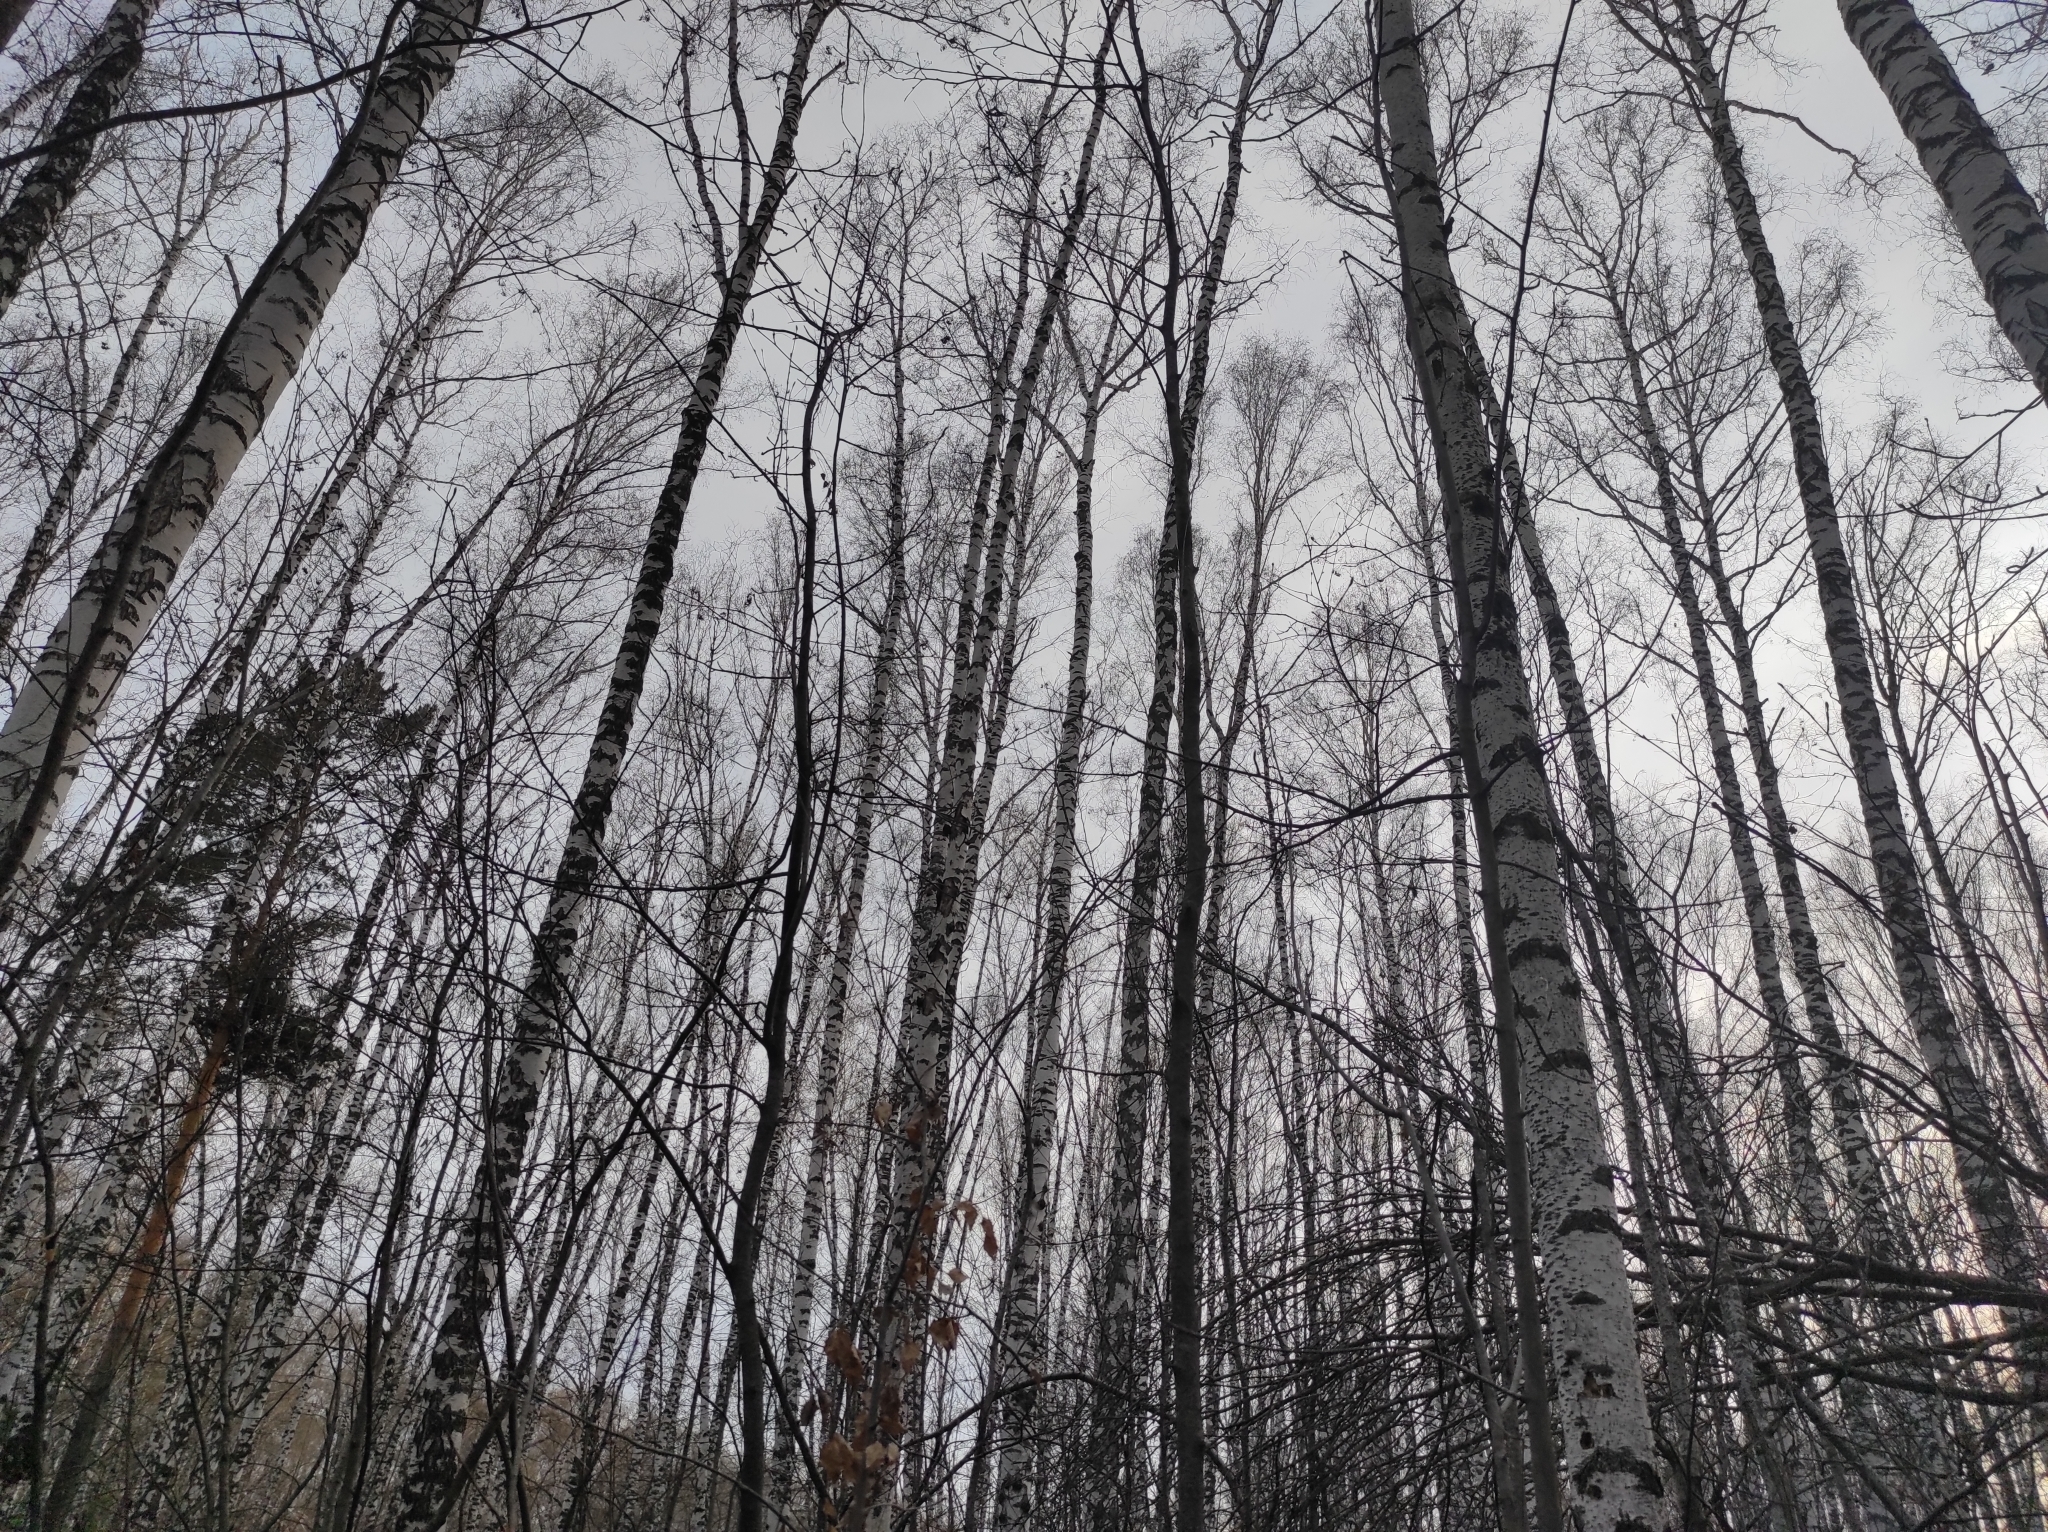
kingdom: Plantae
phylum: Tracheophyta
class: Pinopsida
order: Pinales
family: Pinaceae
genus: Pinus
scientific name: Pinus sylvestris
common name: Scots pine
